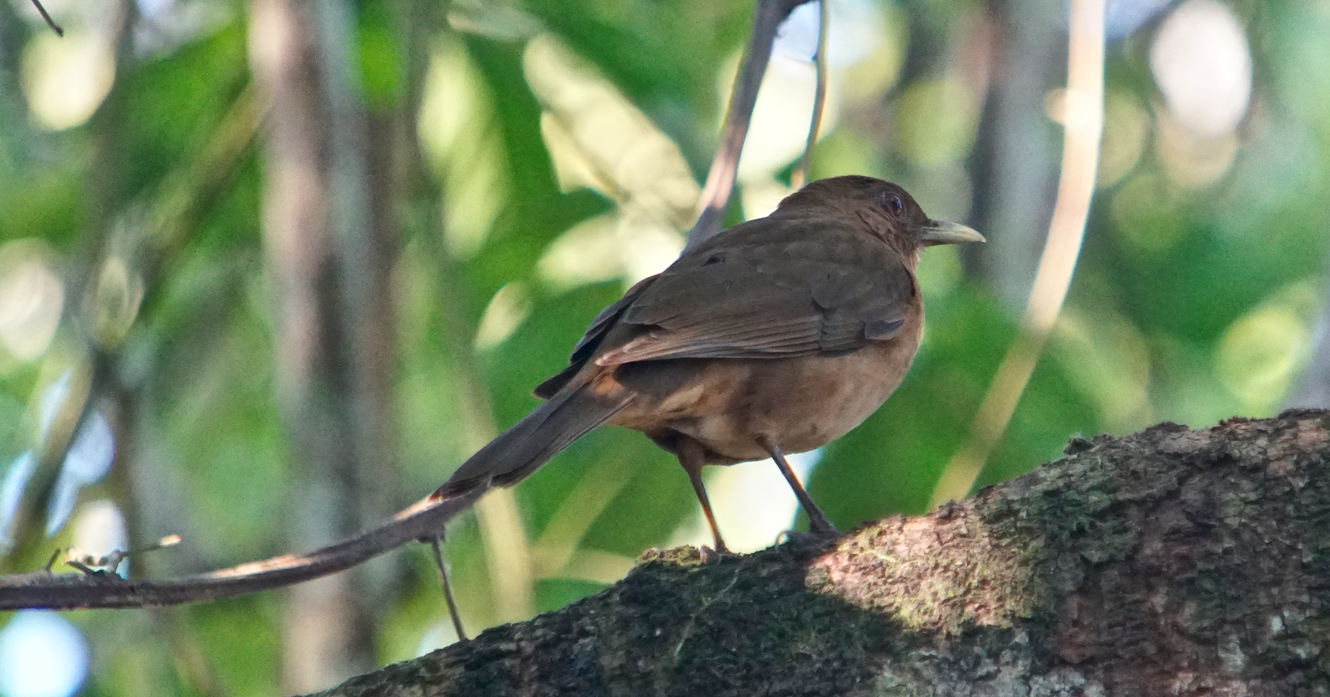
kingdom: Animalia
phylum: Chordata
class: Aves
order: Passeriformes
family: Turdidae
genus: Turdus
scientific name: Turdus grayi
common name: Clay-colored thrush
